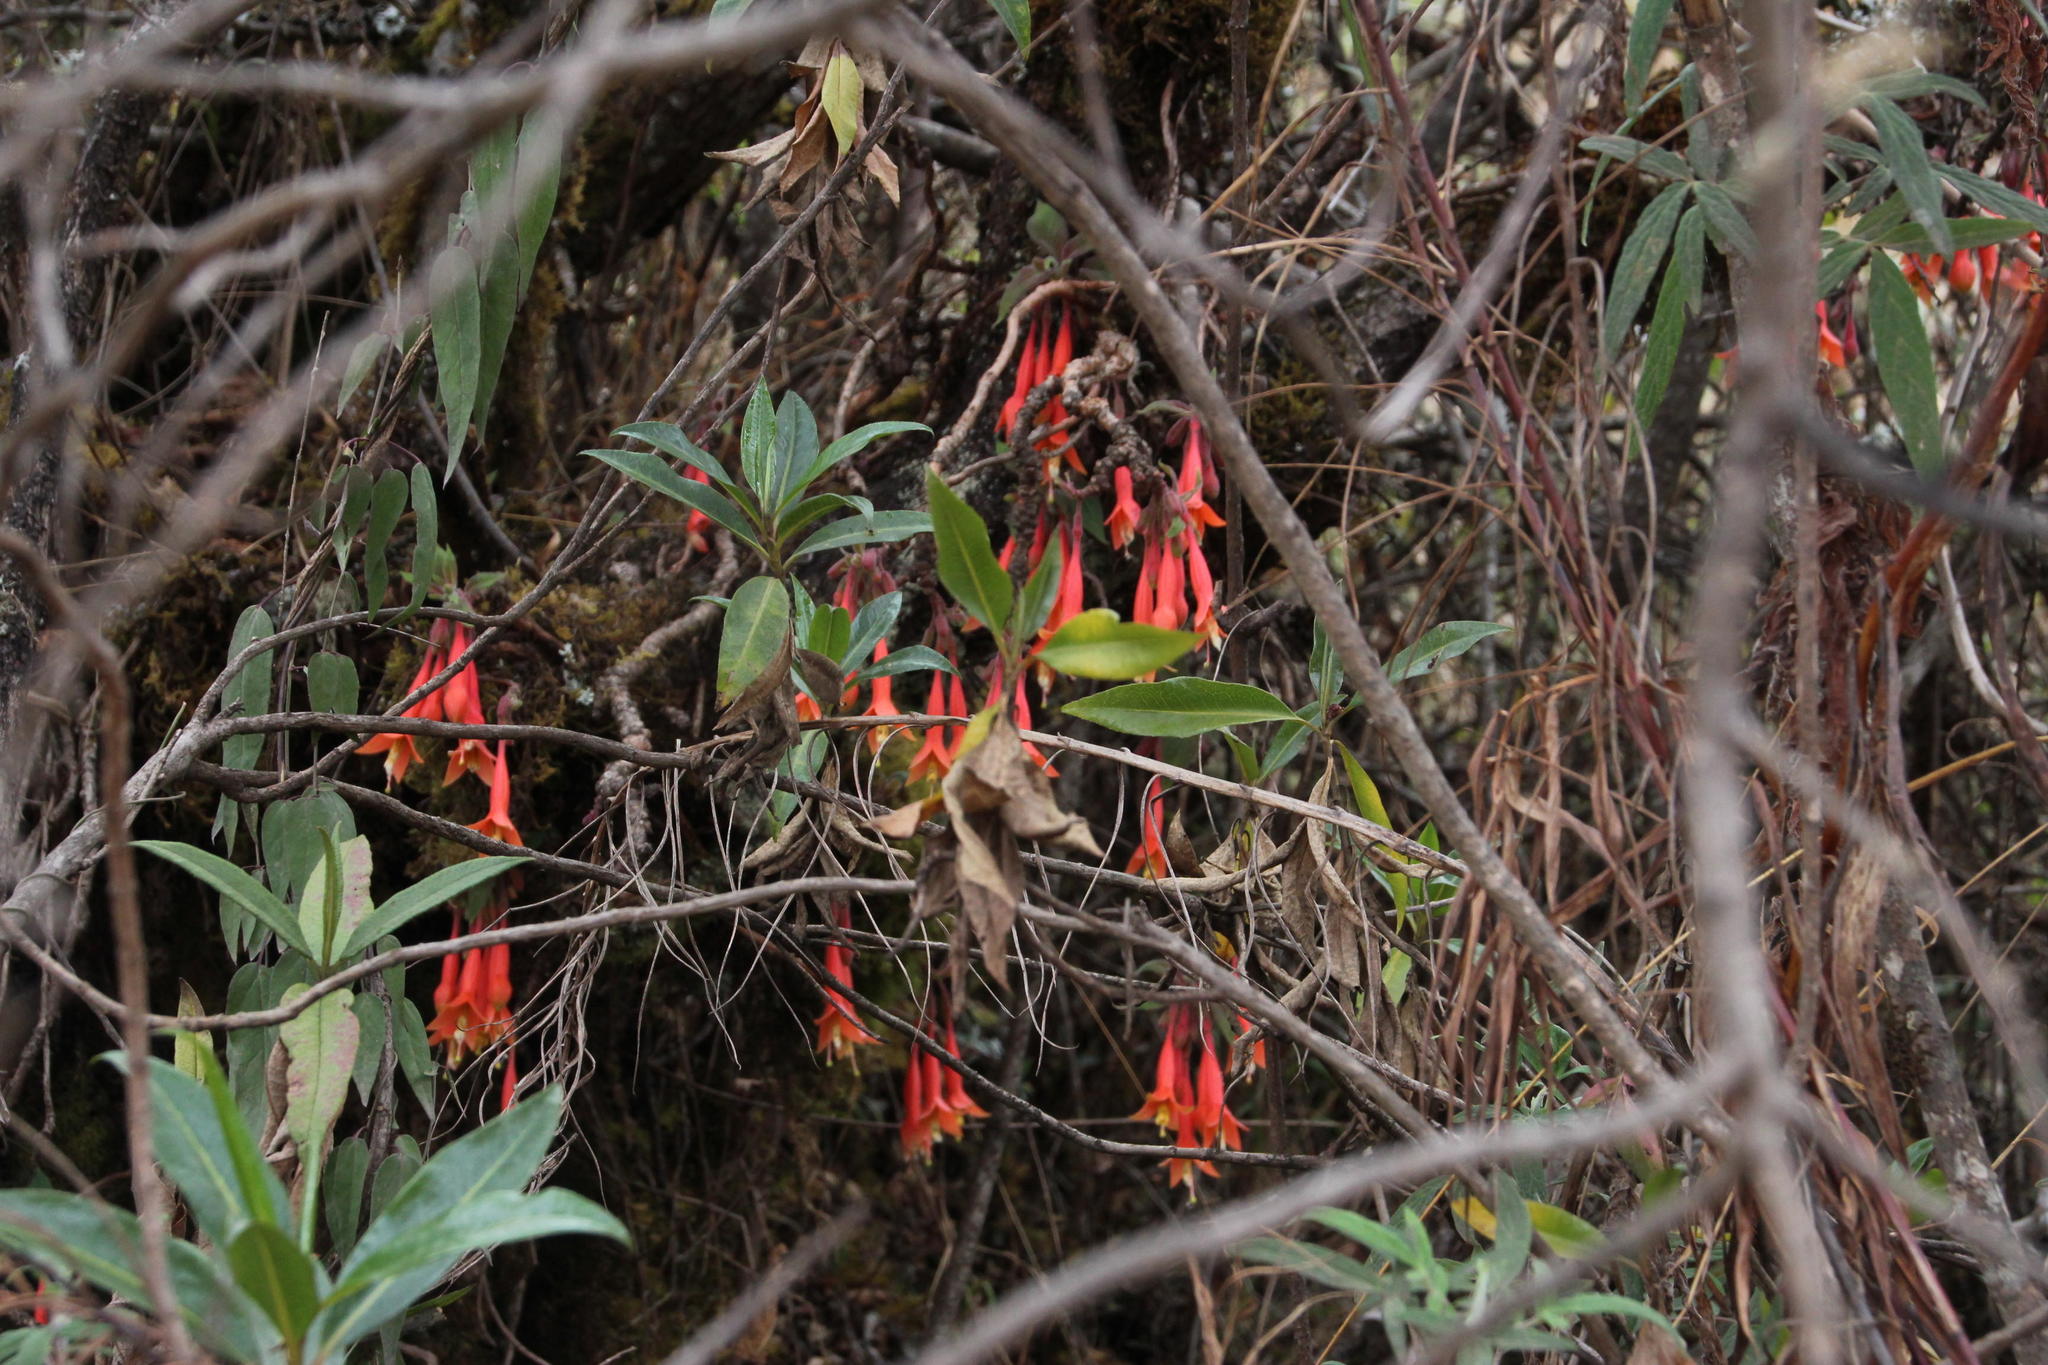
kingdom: Plantae
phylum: Tracheophyta
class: Magnoliopsida
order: Myrtales
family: Onagraceae
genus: Fuchsia
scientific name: Fuchsia apetala
